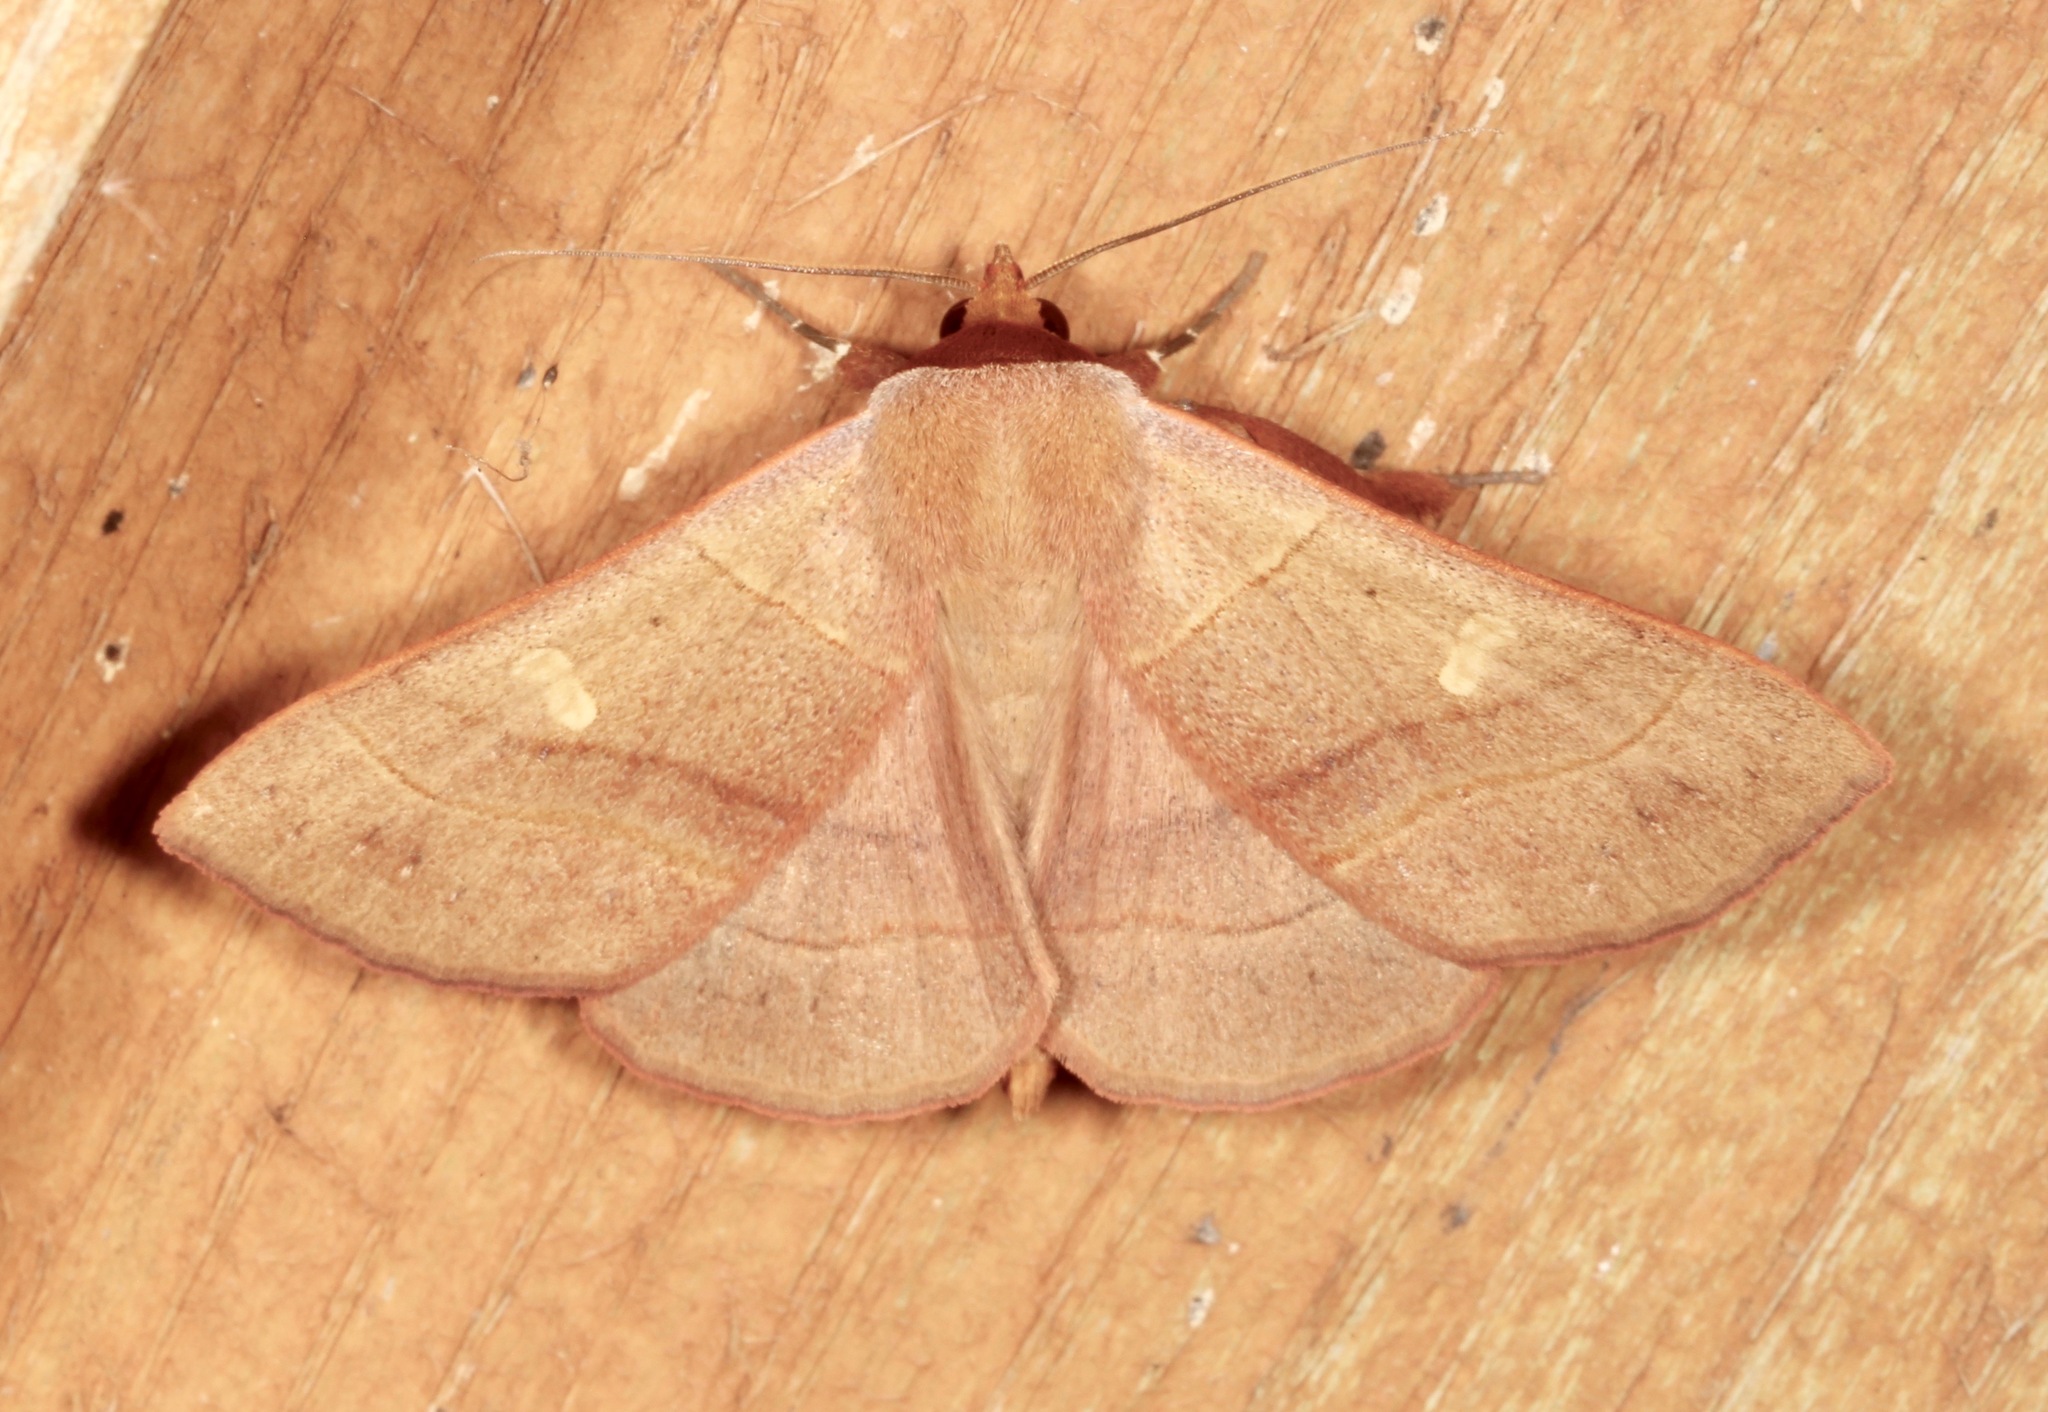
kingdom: Animalia
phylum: Arthropoda
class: Insecta
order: Lepidoptera
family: Erebidae
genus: Panopoda
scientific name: Panopoda rufimargo
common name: Red-lined panopoda moth
